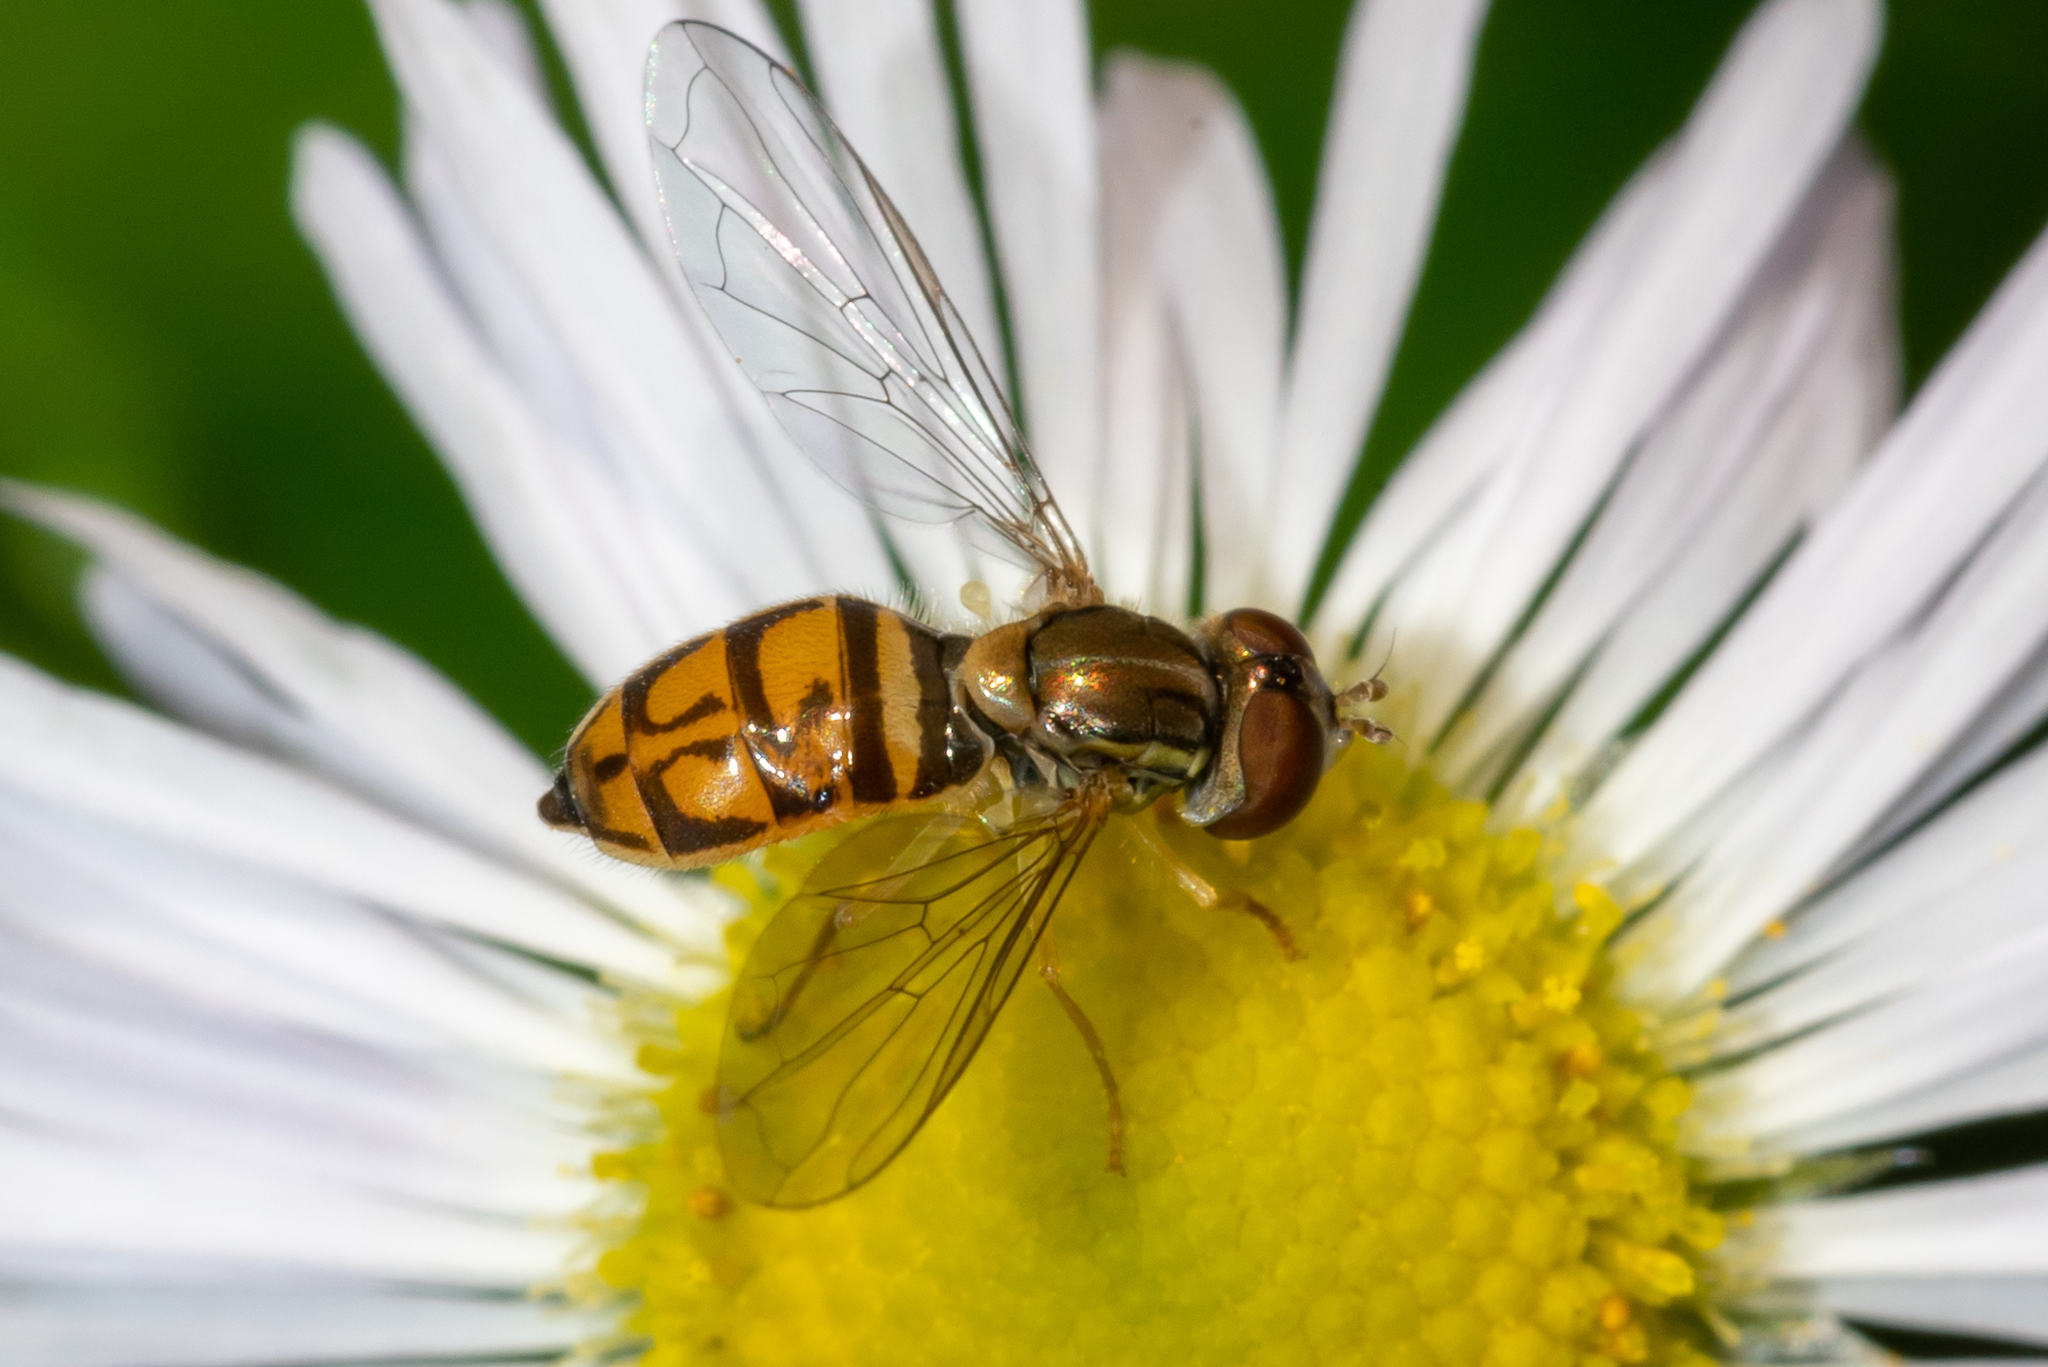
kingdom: Animalia
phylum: Arthropoda
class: Insecta
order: Diptera
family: Syrphidae
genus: Toxomerus
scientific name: Toxomerus marginatus
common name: Syrphid fly
